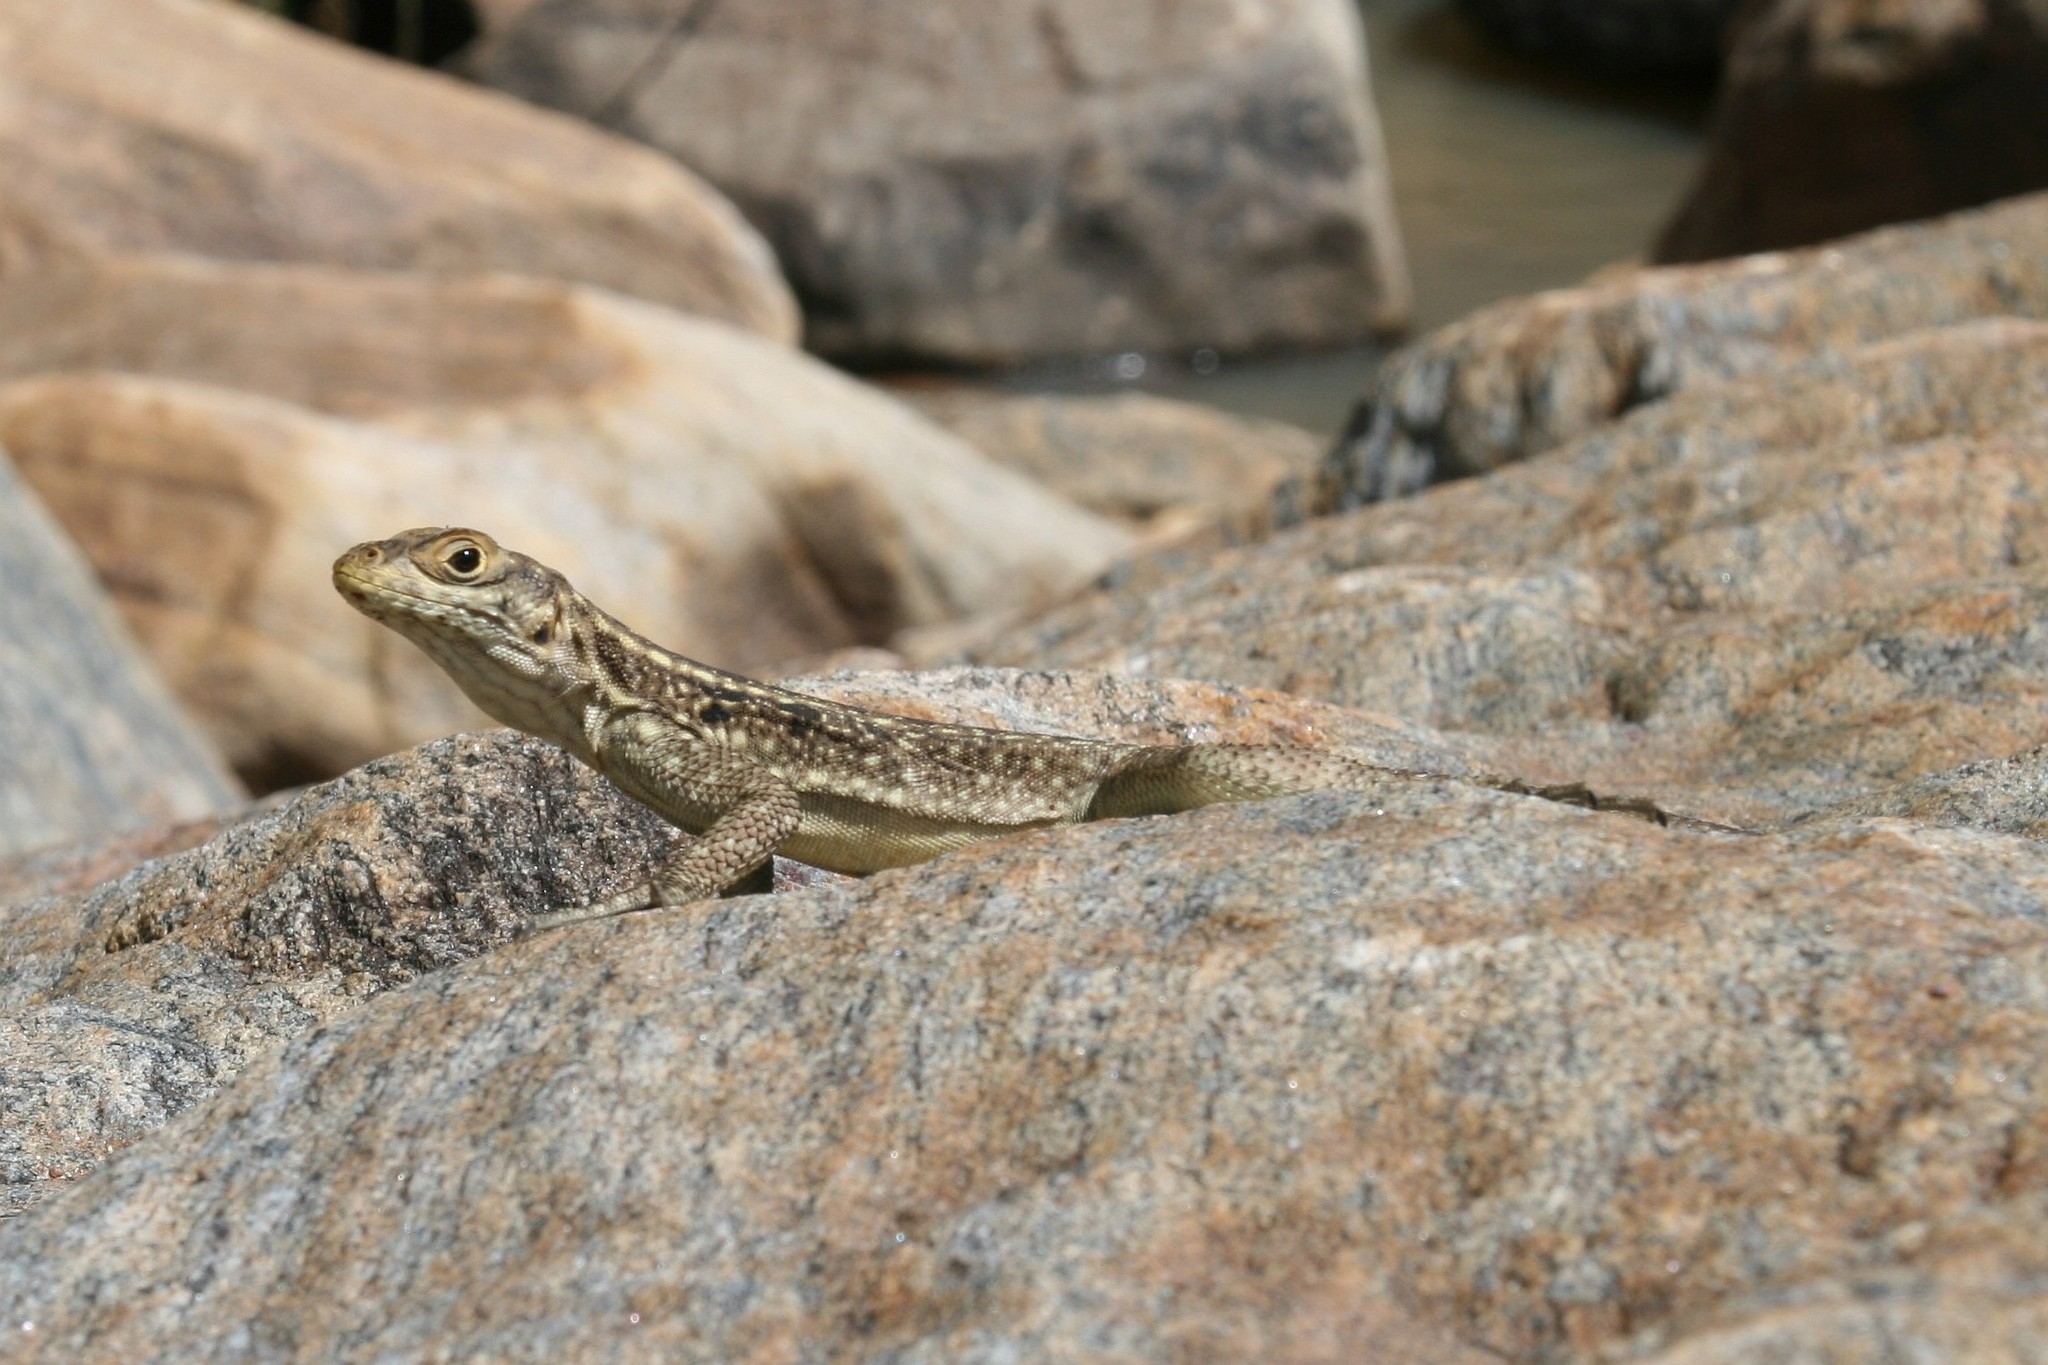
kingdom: Animalia
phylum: Chordata
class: Squamata
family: Opluridae
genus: Oplurus
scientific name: Oplurus quadrimaculatus
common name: Duméril's madagascar swift
